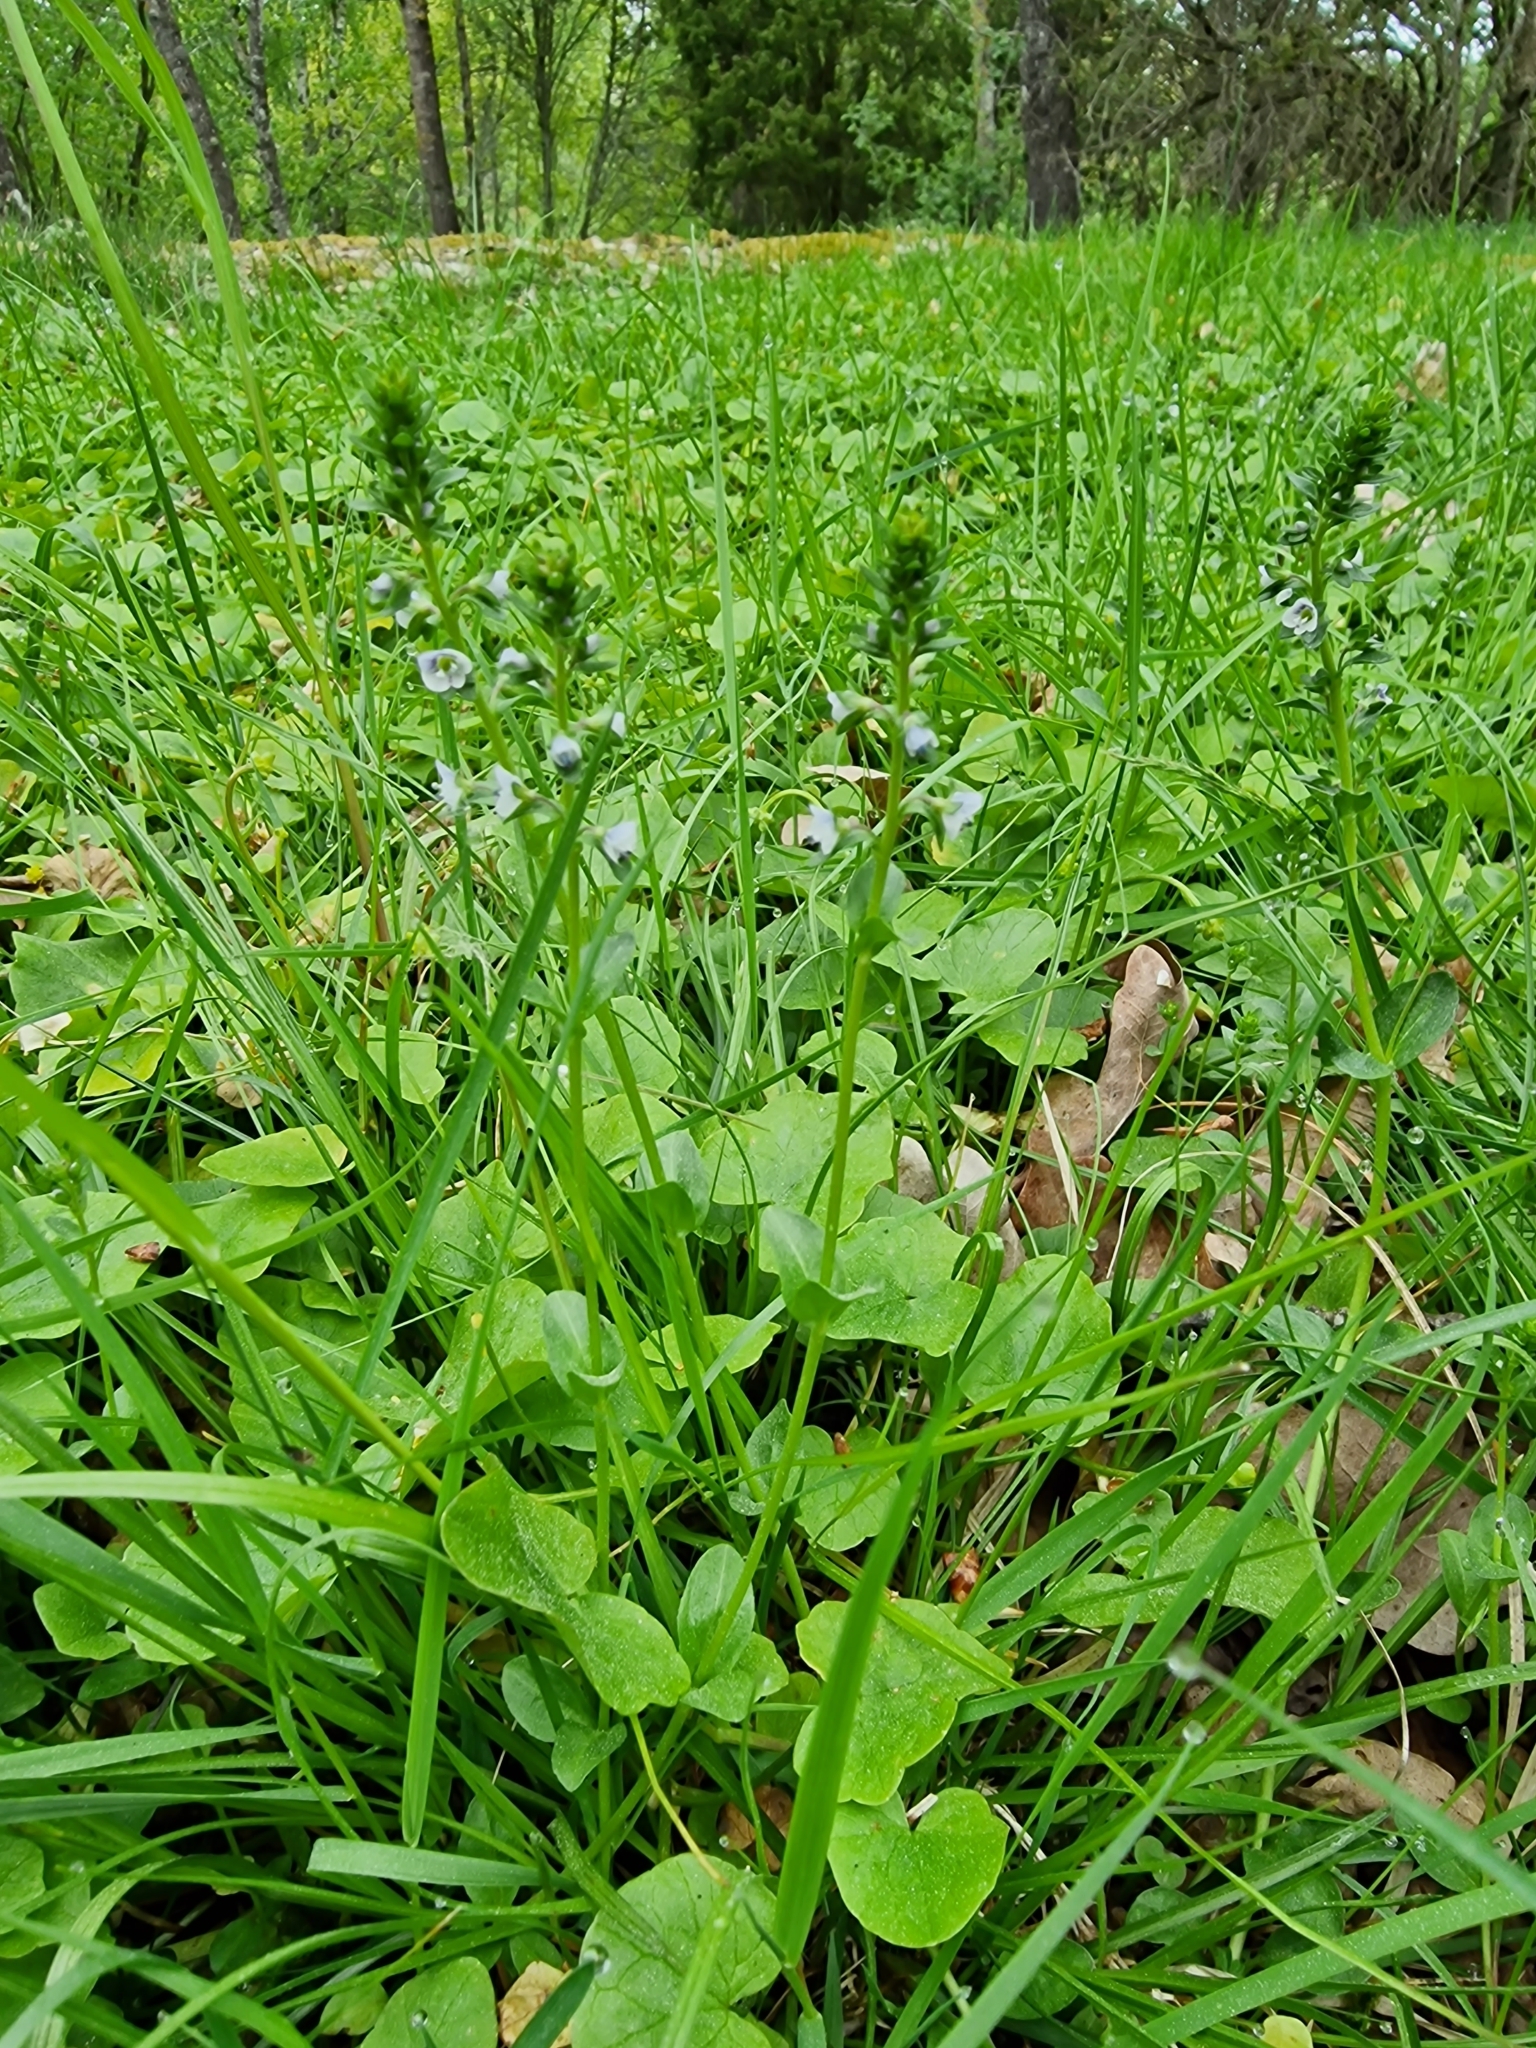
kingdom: Plantae
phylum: Tracheophyta
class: Magnoliopsida
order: Lamiales
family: Plantaginaceae
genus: Veronica
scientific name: Veronica serpyllifolia
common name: Thyme-leaved speedwell
